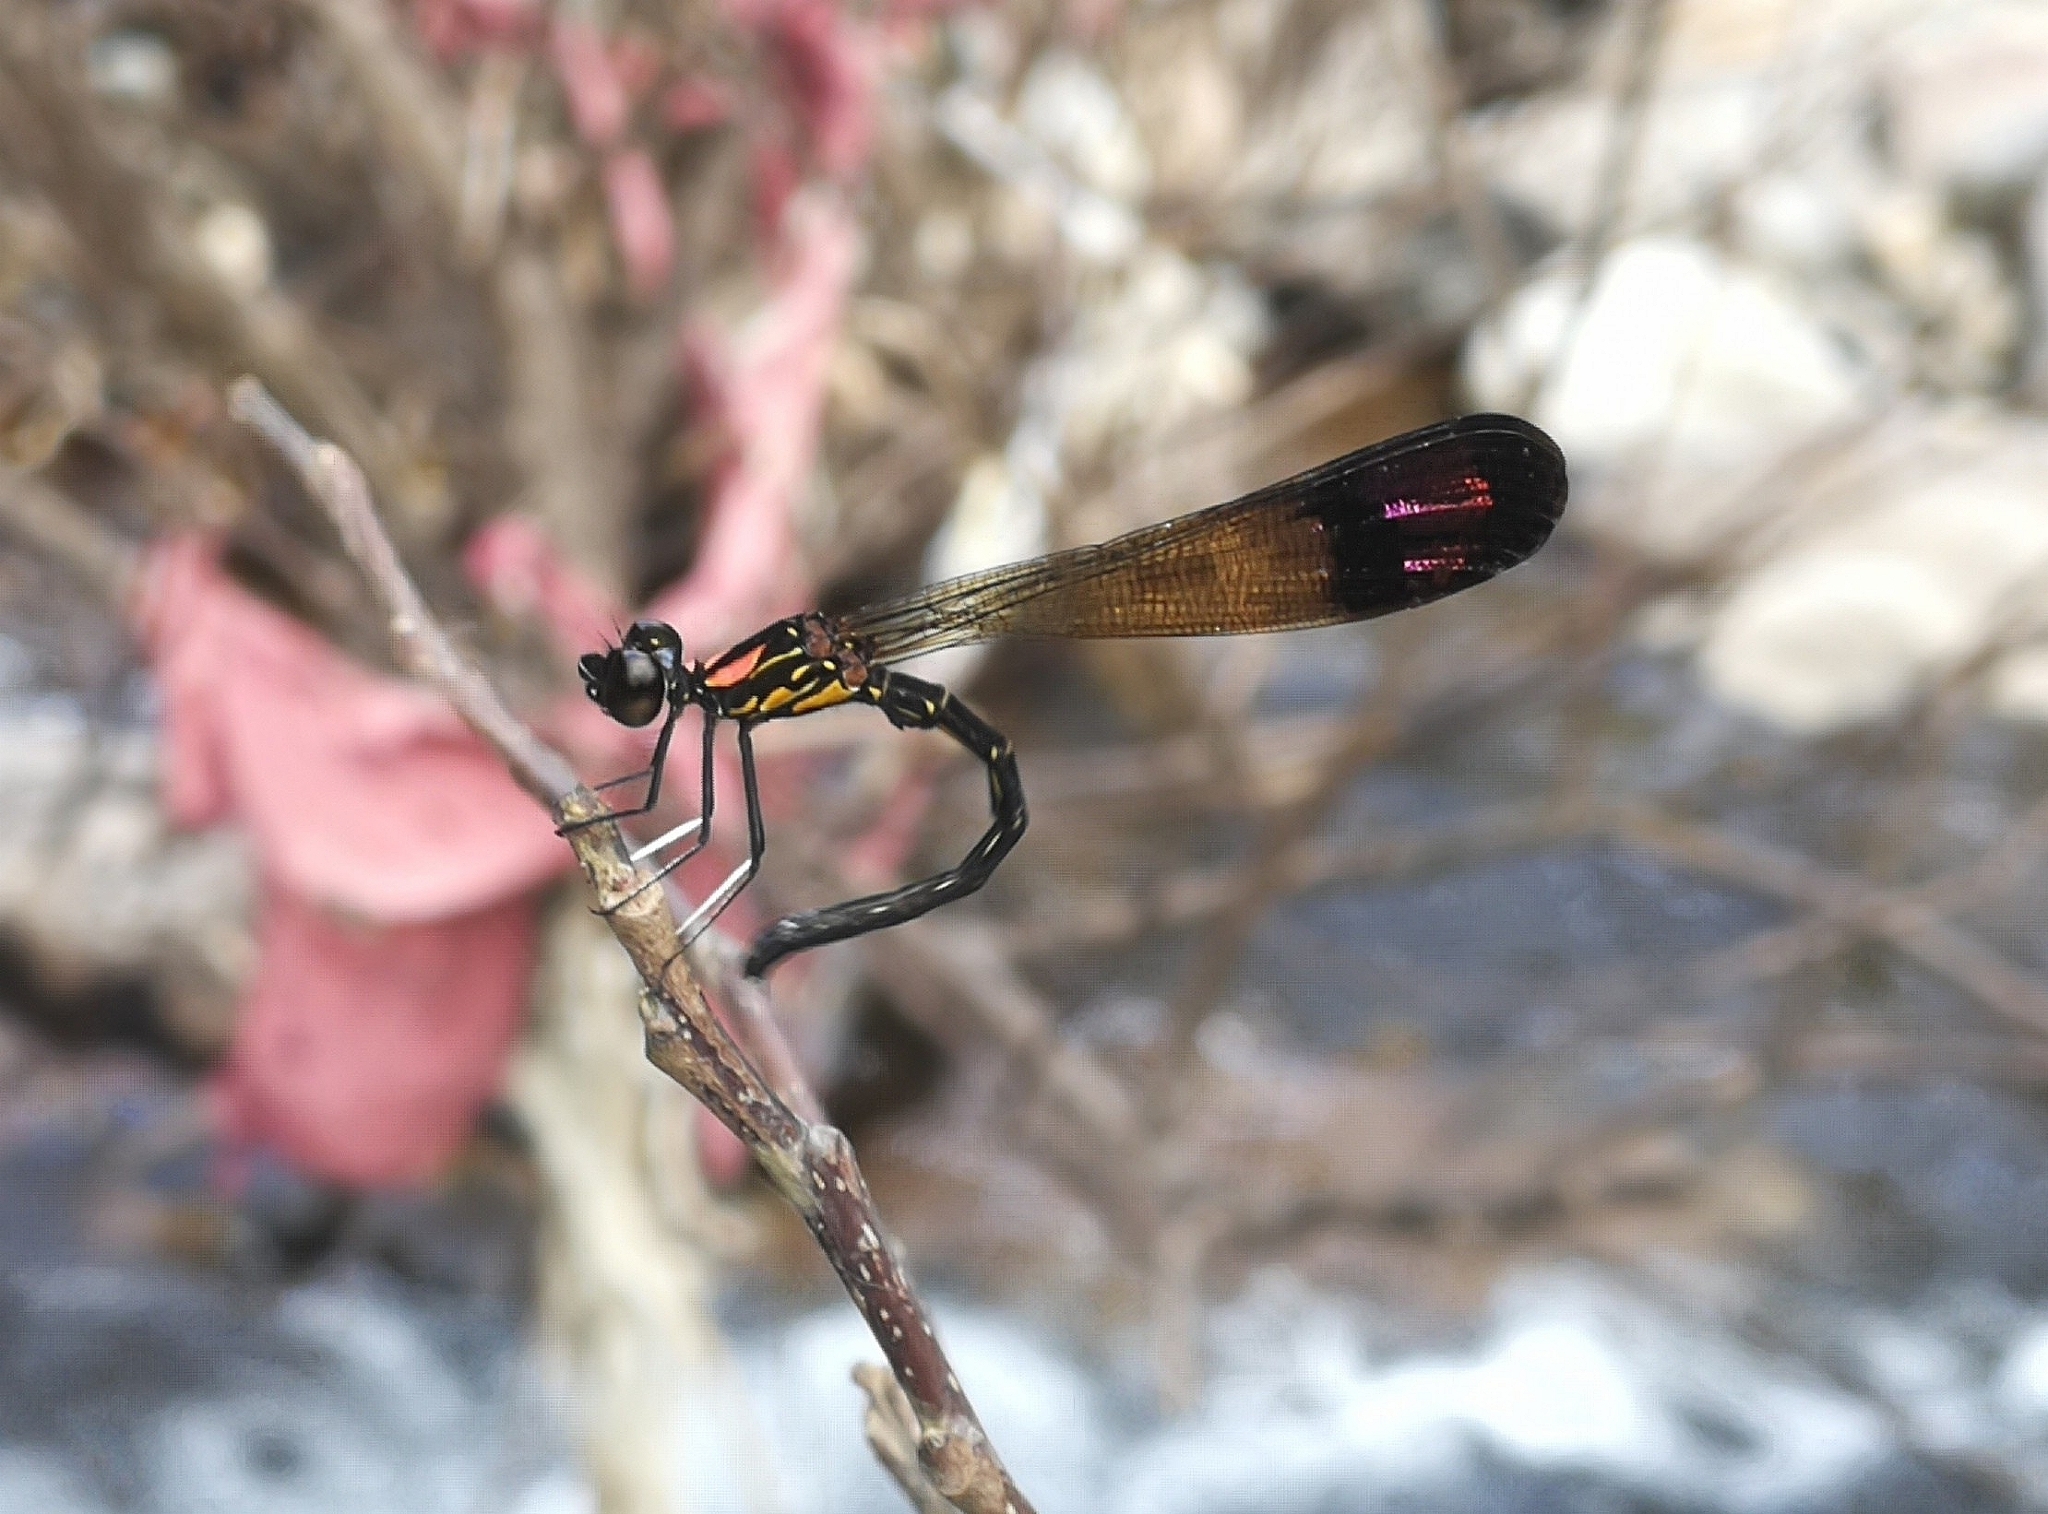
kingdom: Animalia
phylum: Arthropoda
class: Insecta
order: Odonata
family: Chlorocyphidae
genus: Heliocypha
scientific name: Heliocypha bisignata
